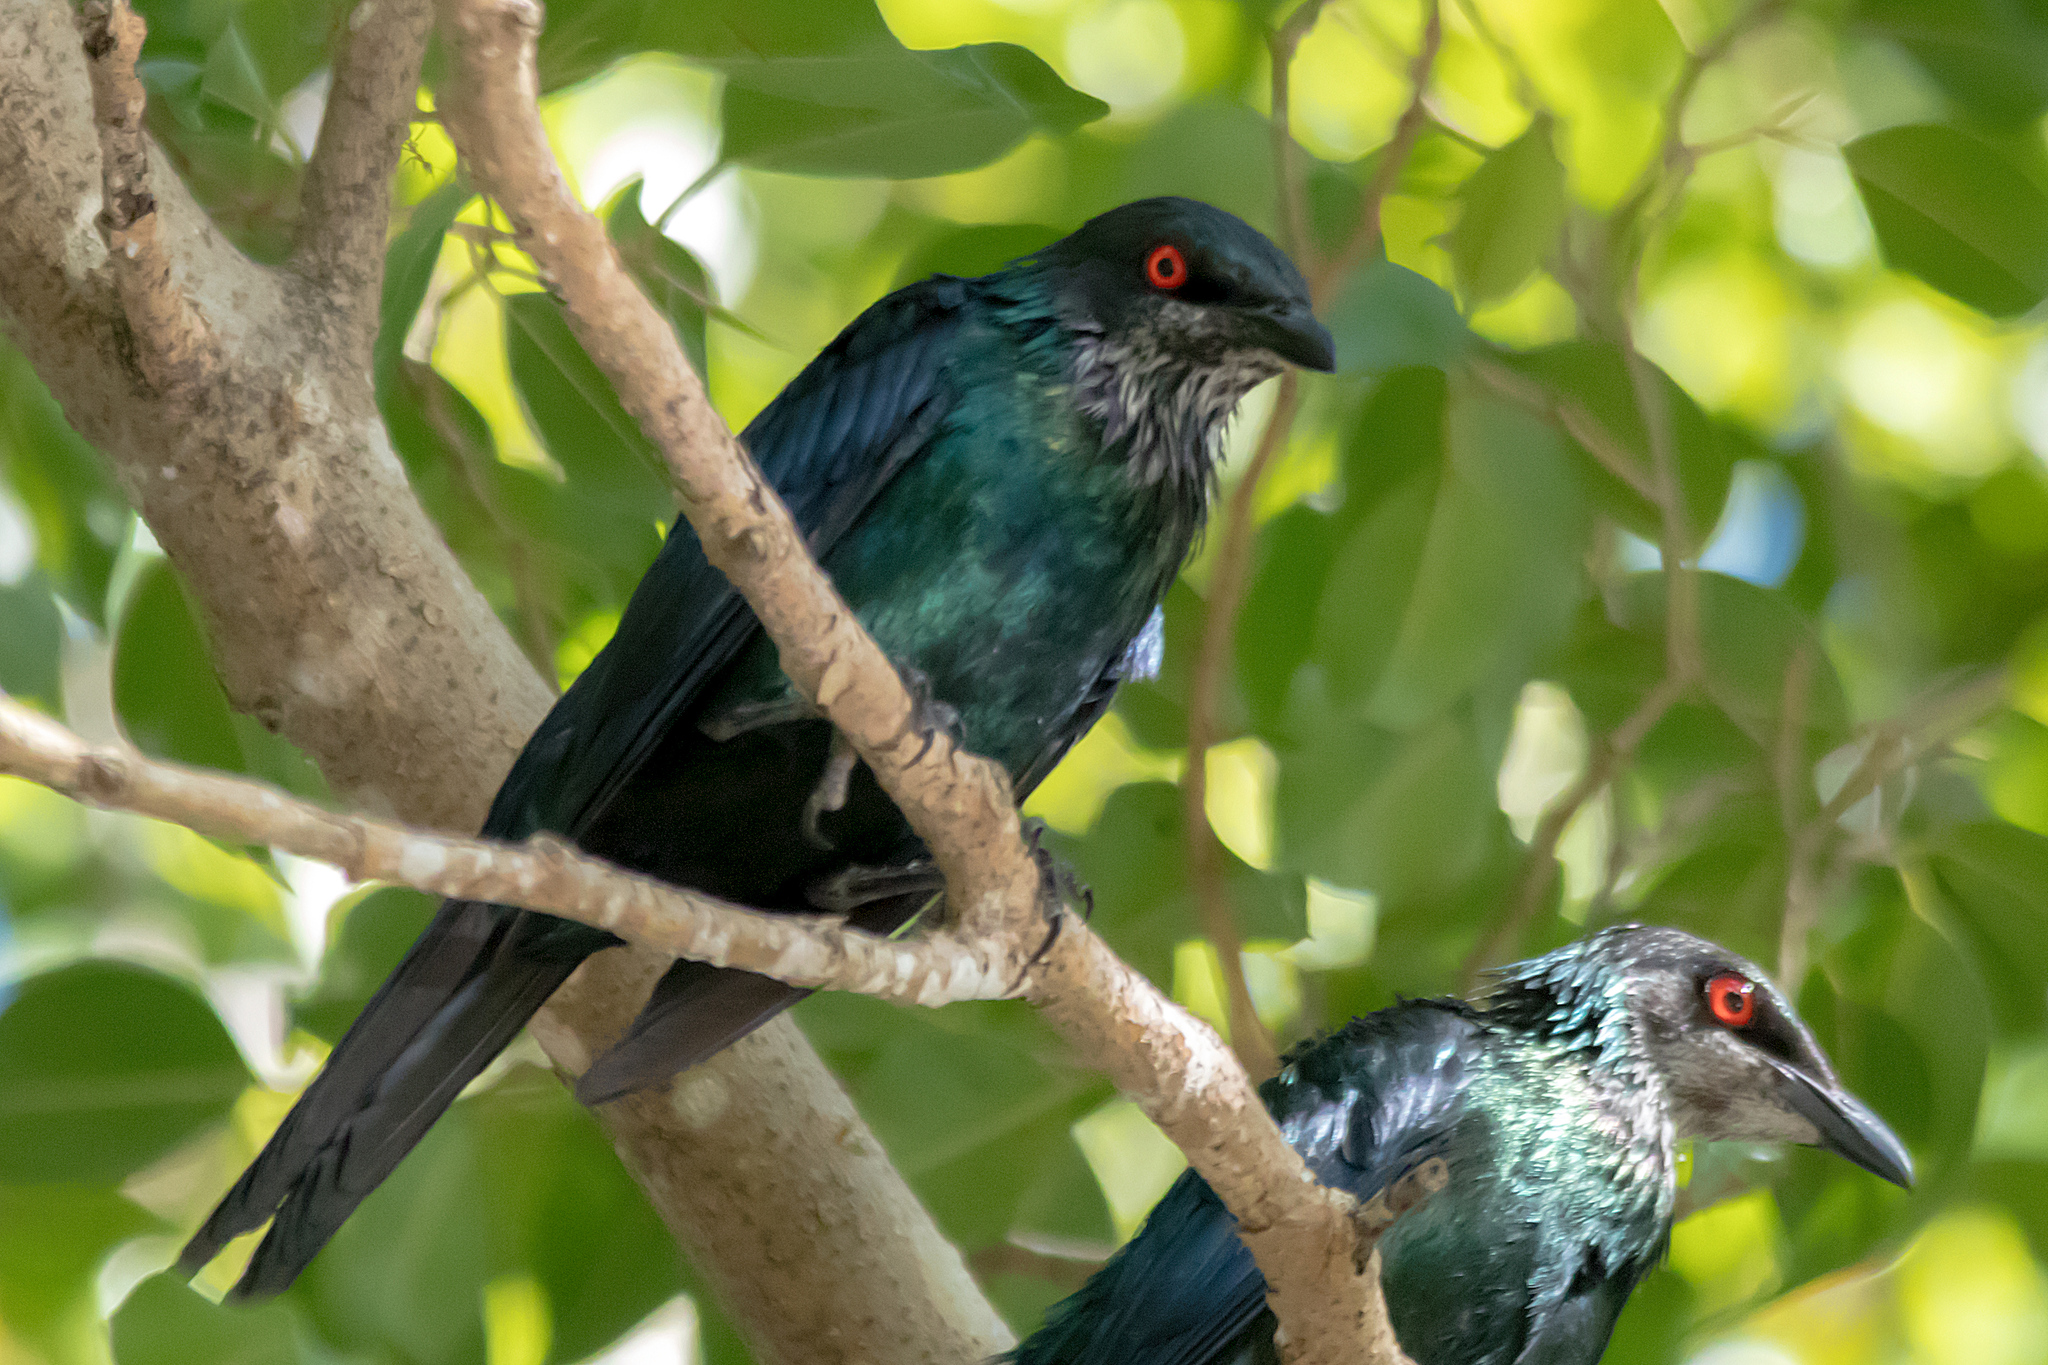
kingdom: Animalia
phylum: Chordata
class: Aves
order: Passeriformes
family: Sturnidae
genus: Aplonis
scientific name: Aplonis metallica
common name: Metallic starling
